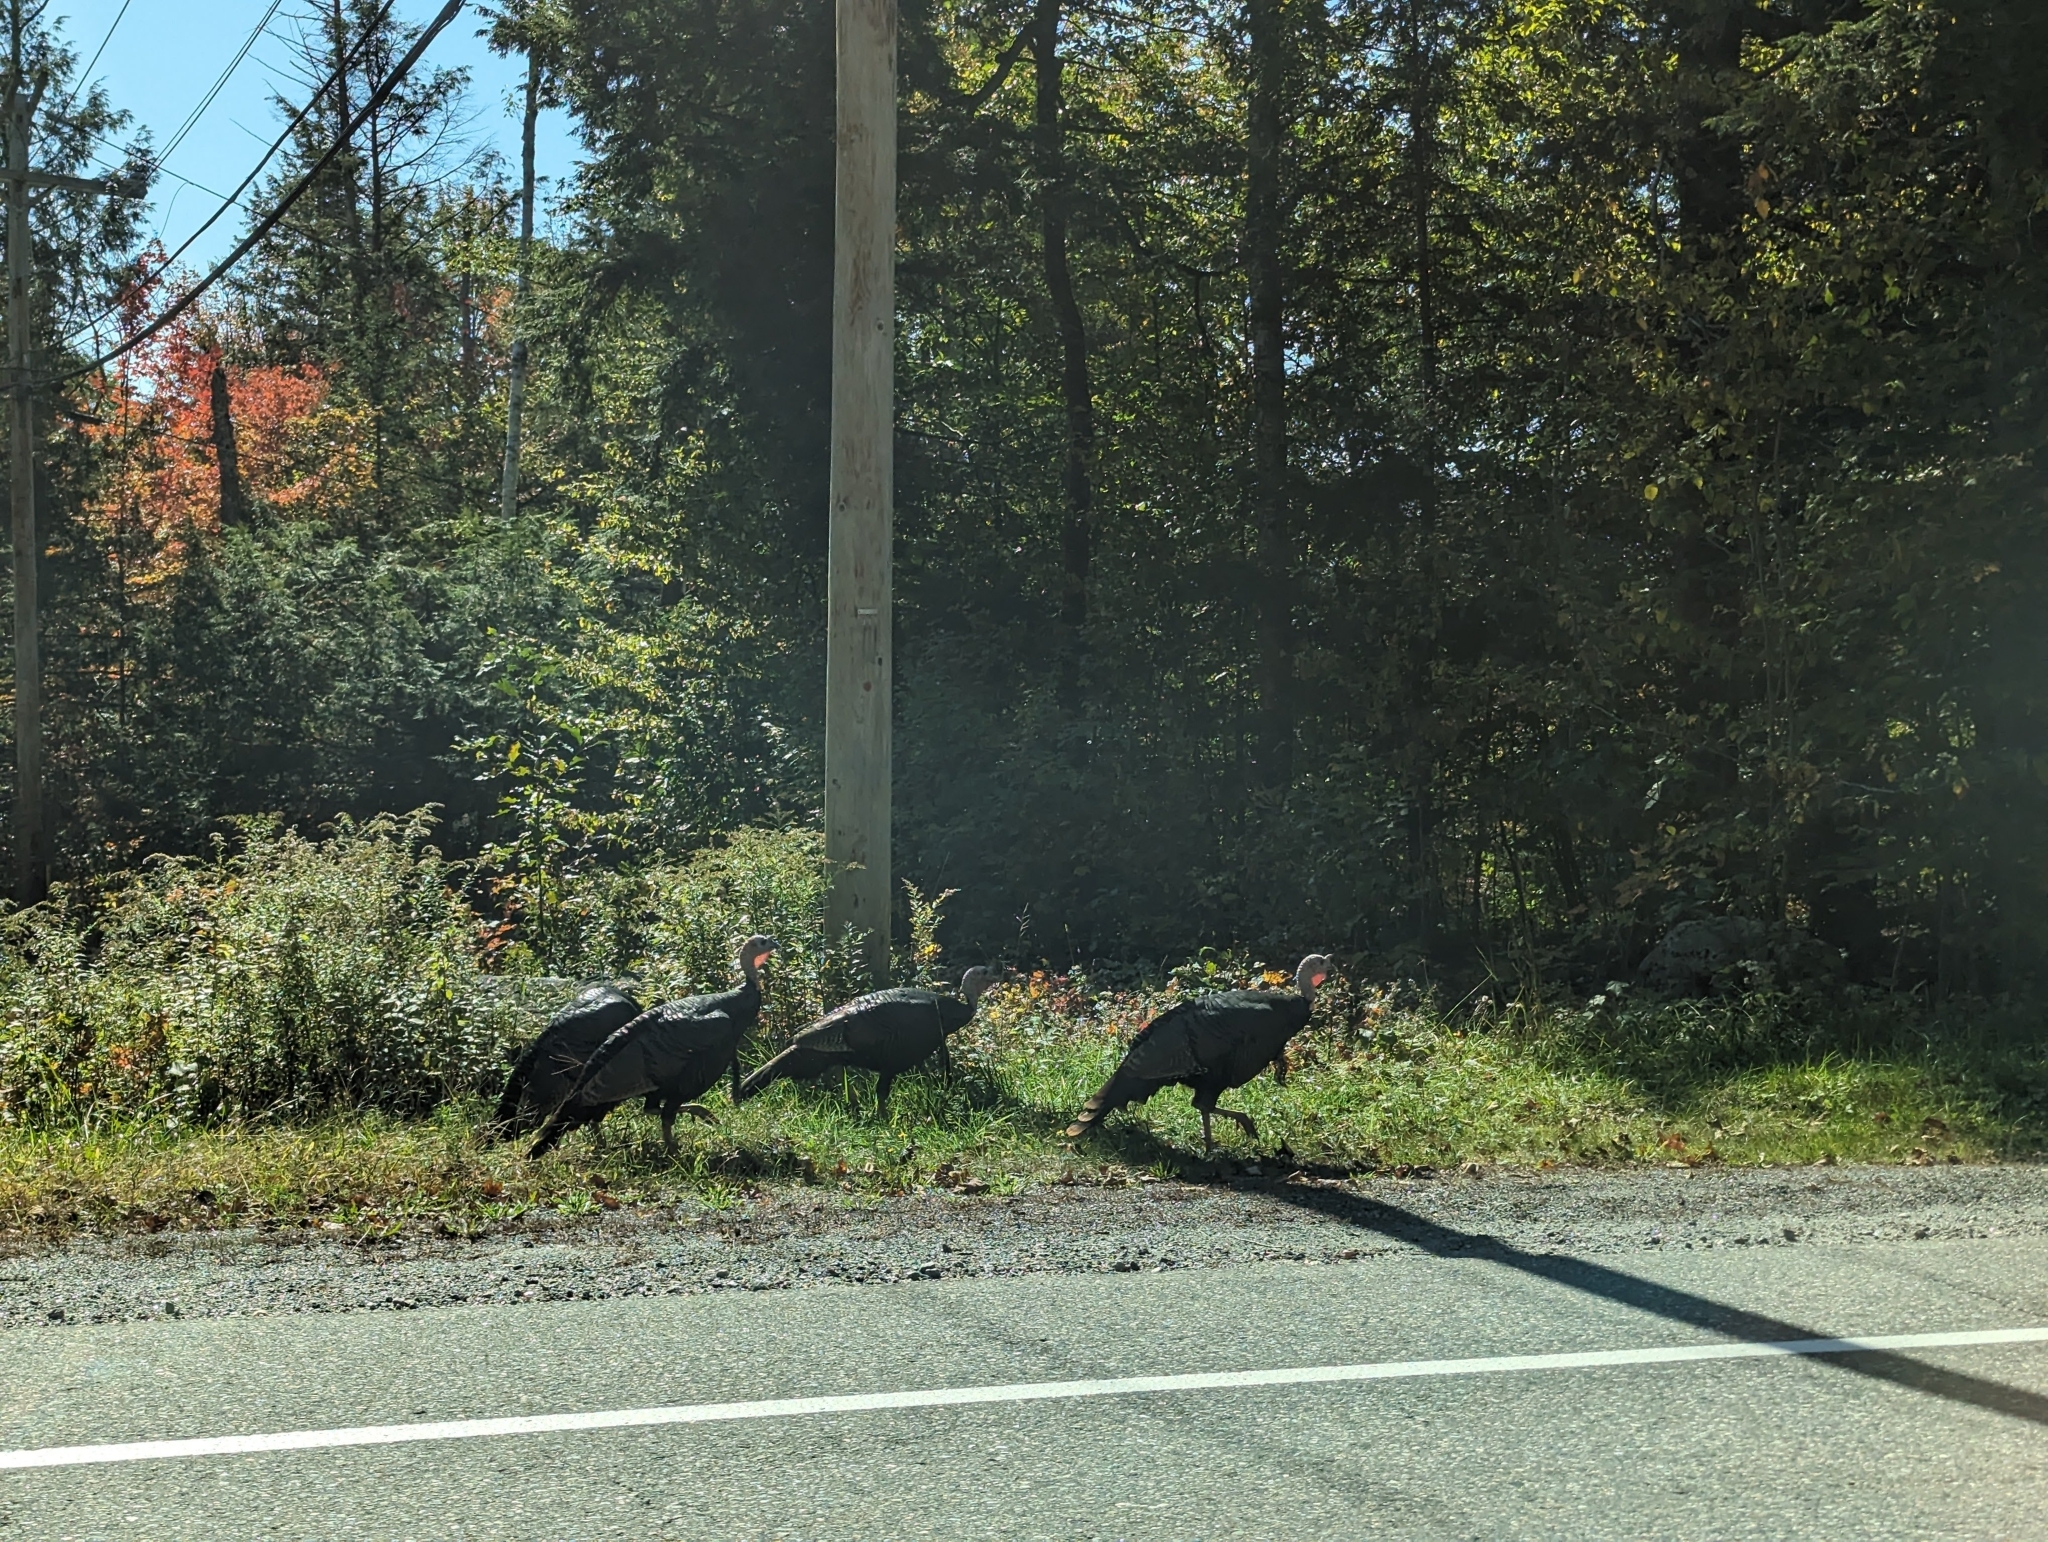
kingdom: Animalia
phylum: Chordata
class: Aves
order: Galliformes
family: Phasianidae
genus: Meleagris
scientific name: Meleagris gallopavo
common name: Wild turkey
